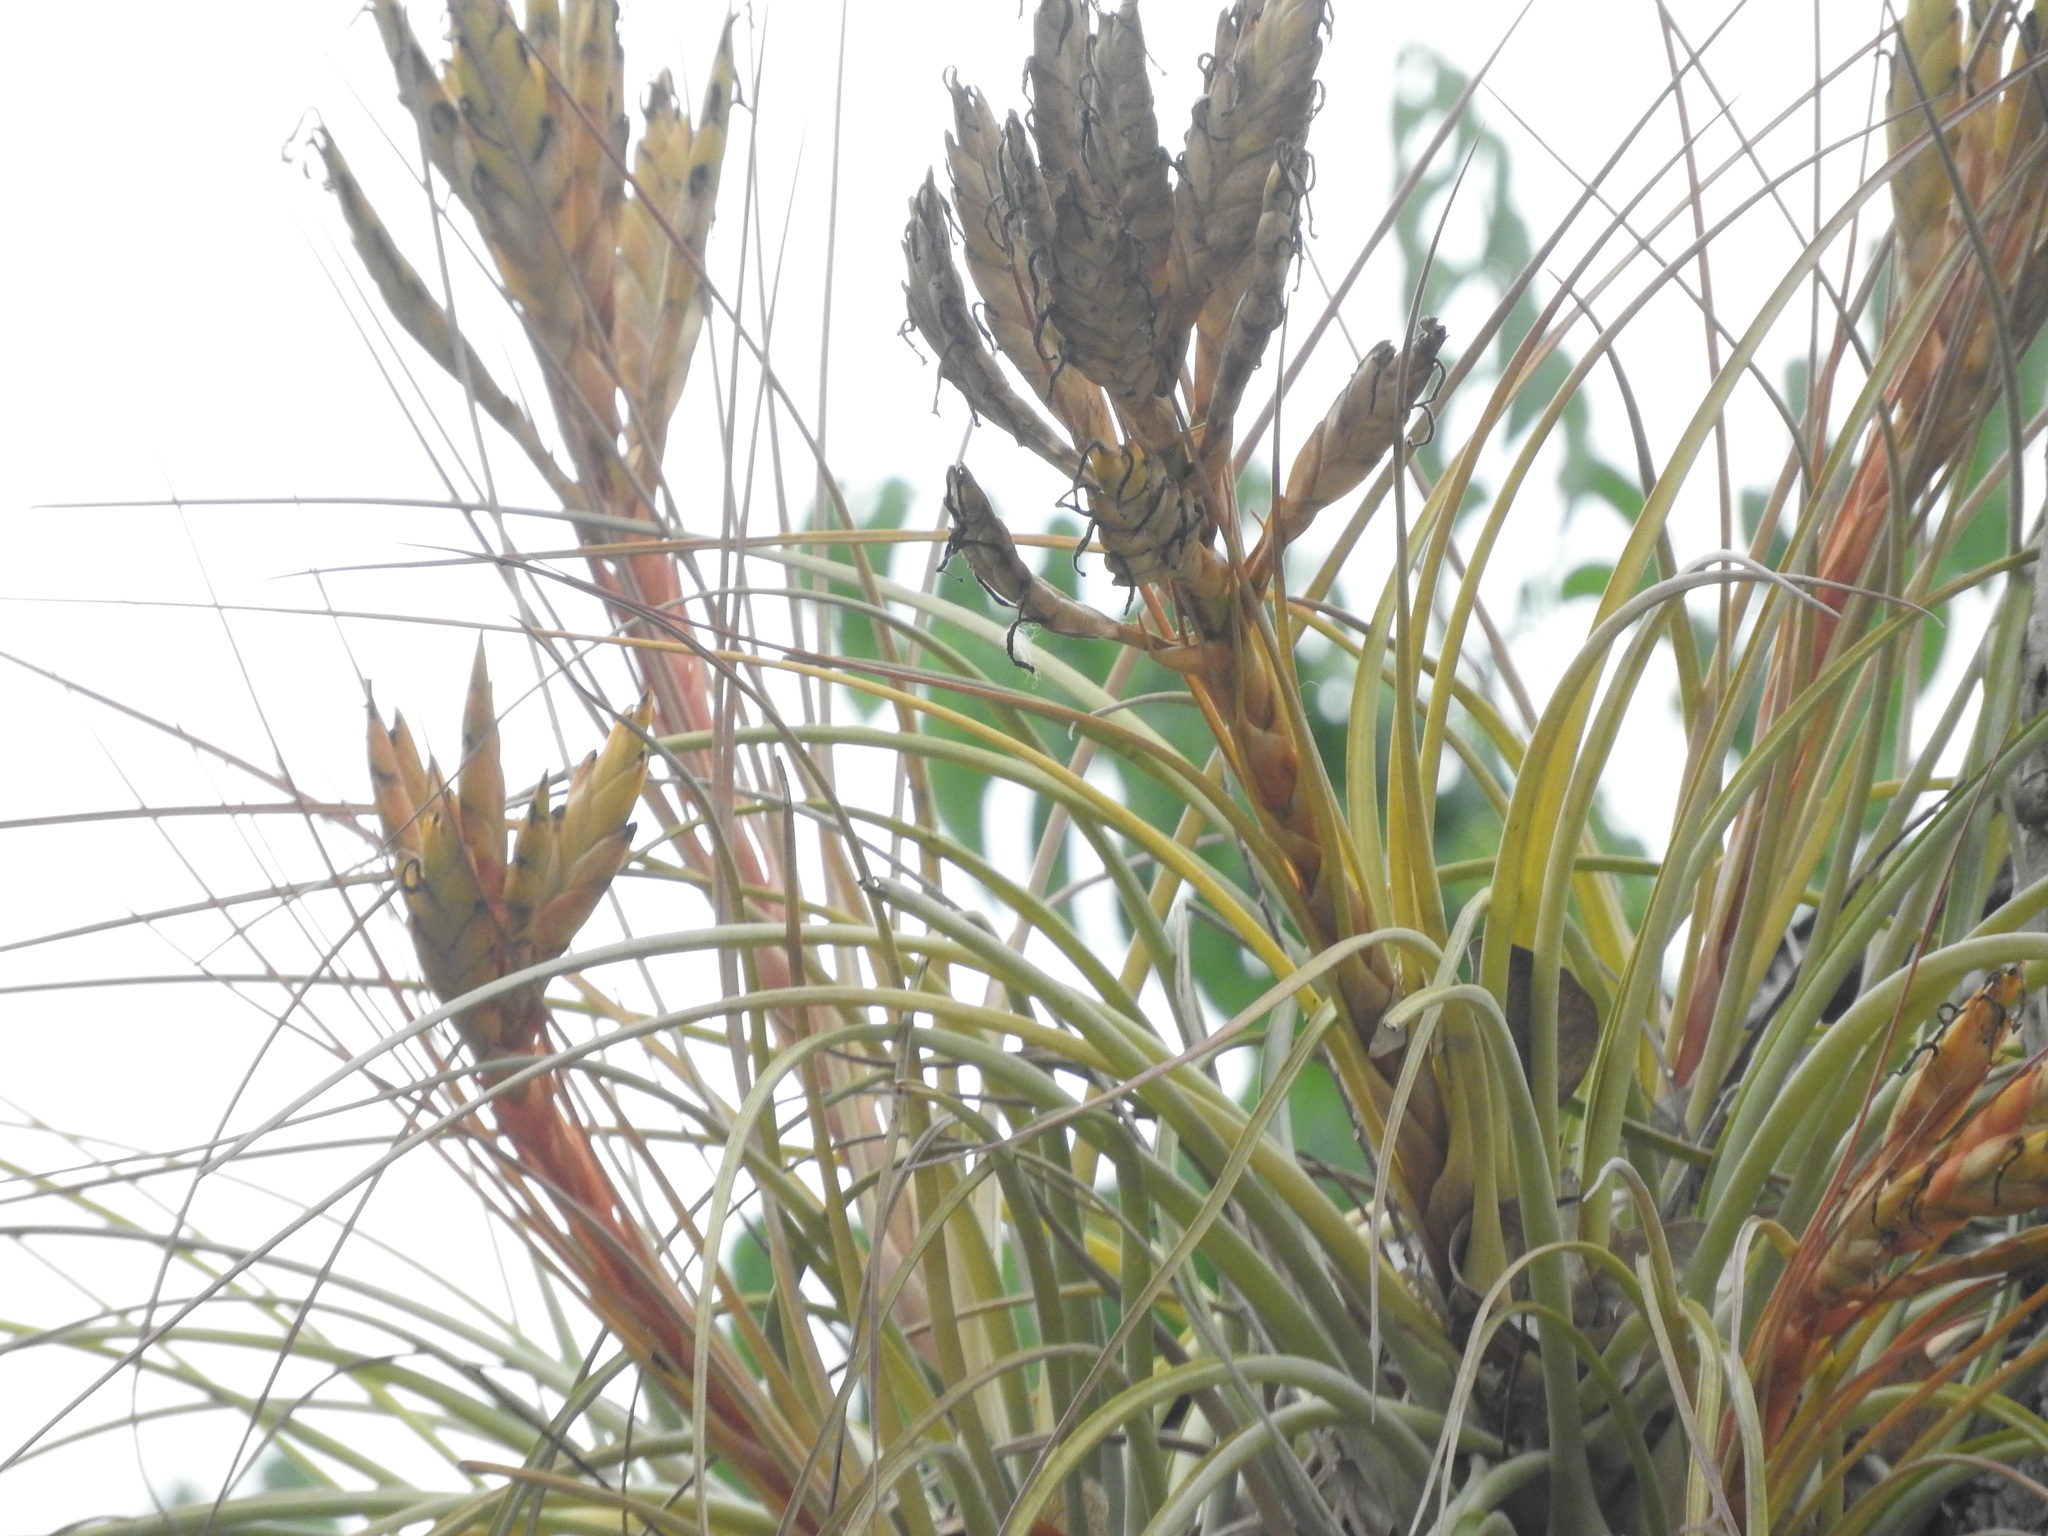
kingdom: Plantae
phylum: Tracheophyta
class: Liliopsida
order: Poales
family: Bromeliaceae
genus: Tillandsia
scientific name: Tillandsia fasciculata
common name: Giant airplant
